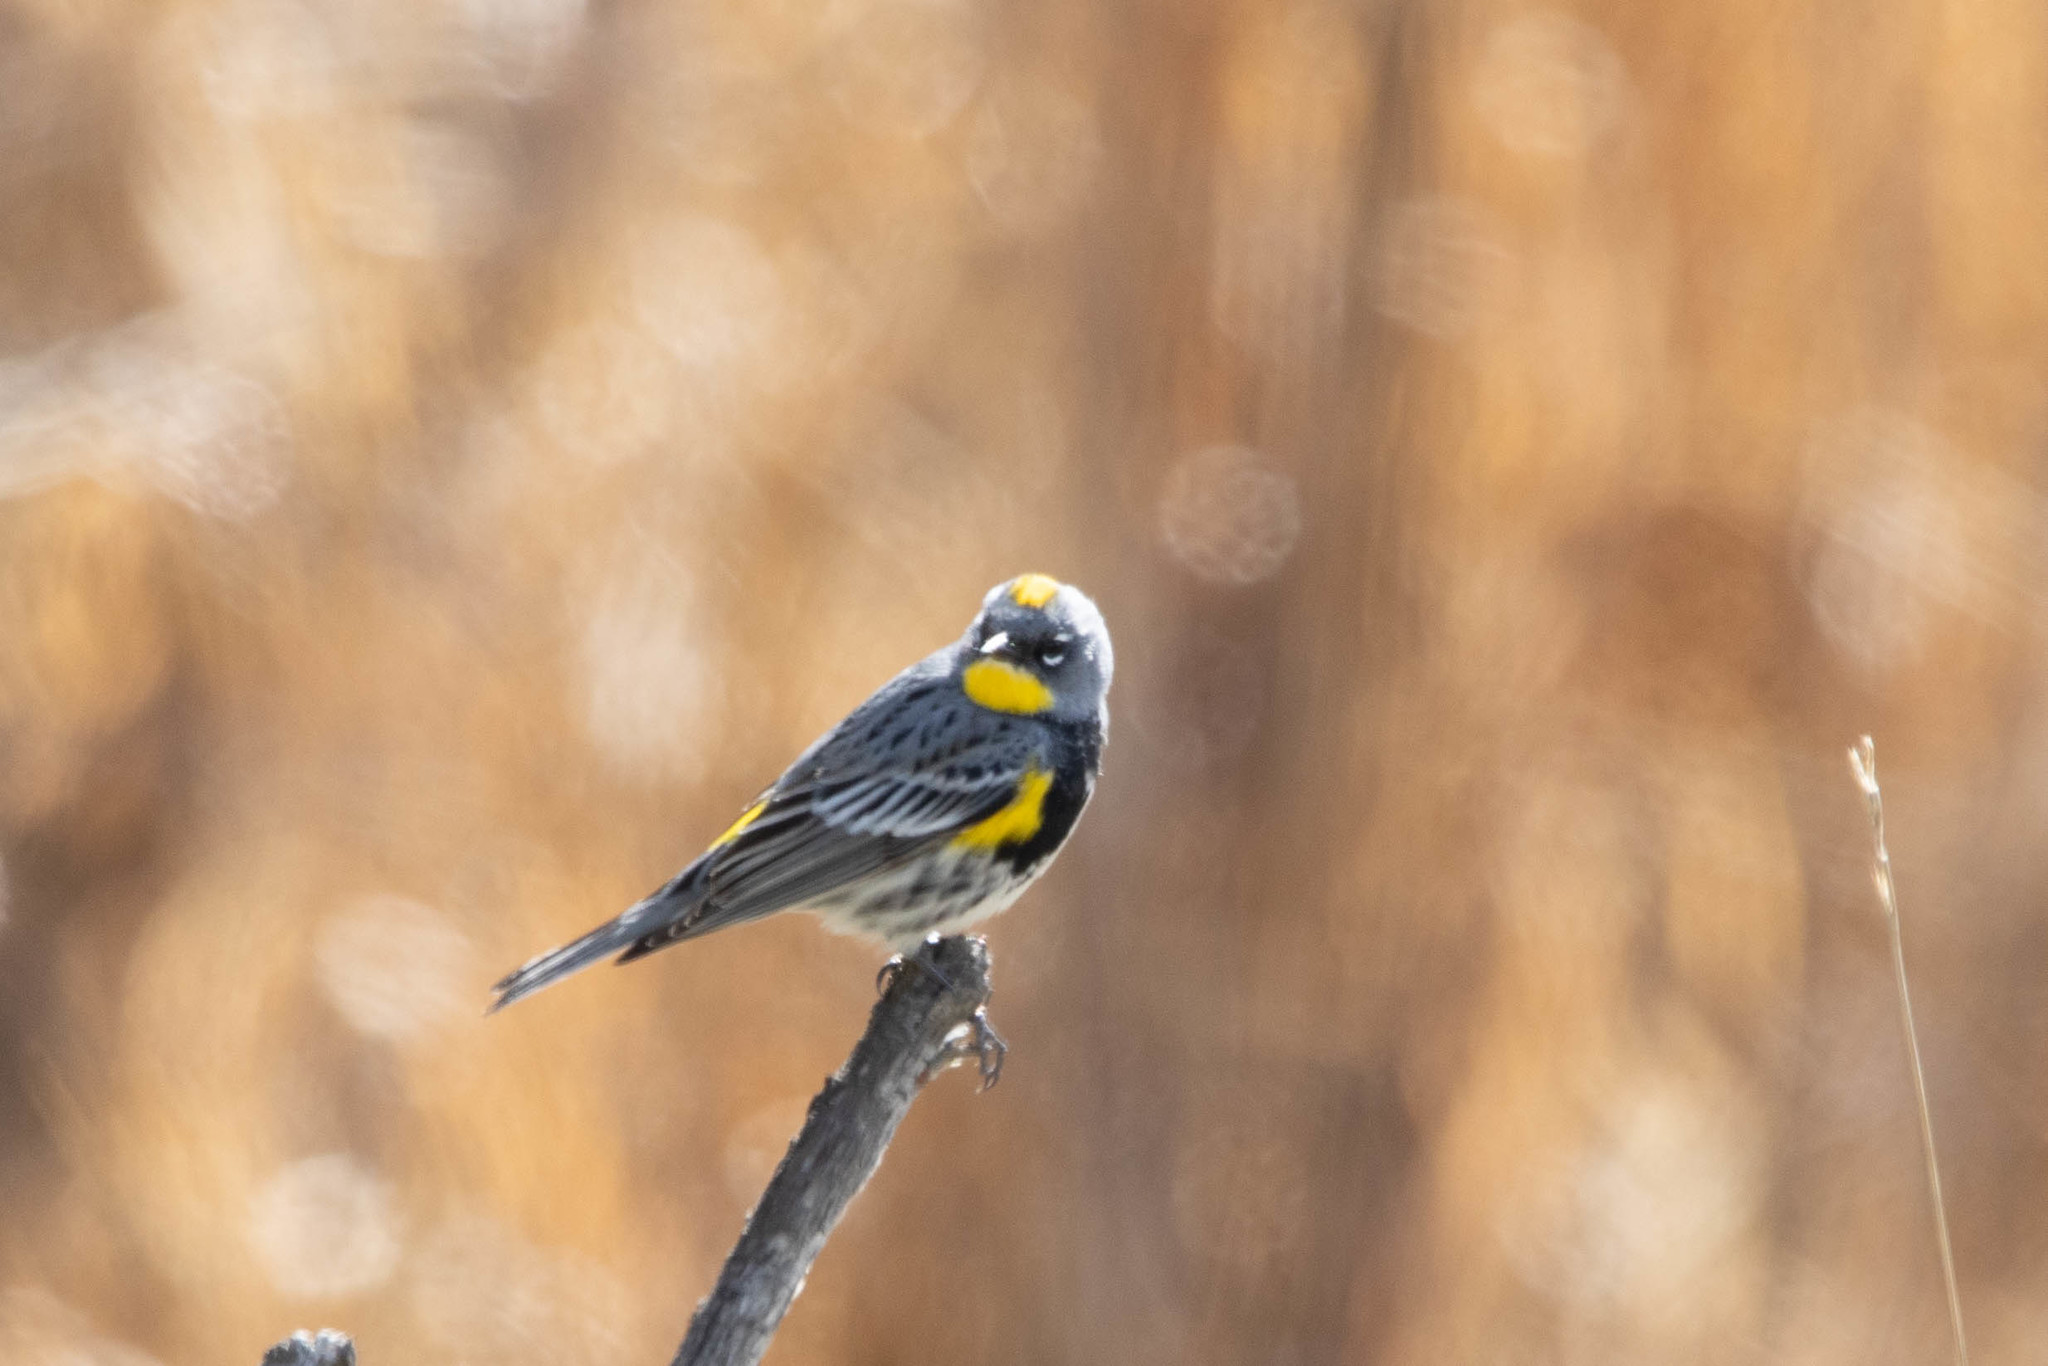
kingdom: Animalia
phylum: Chordata
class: Aves
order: Passeriformes
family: Parulidae
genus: Setophaga
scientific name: Setophaga auduboni
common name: Audubon's warbler
